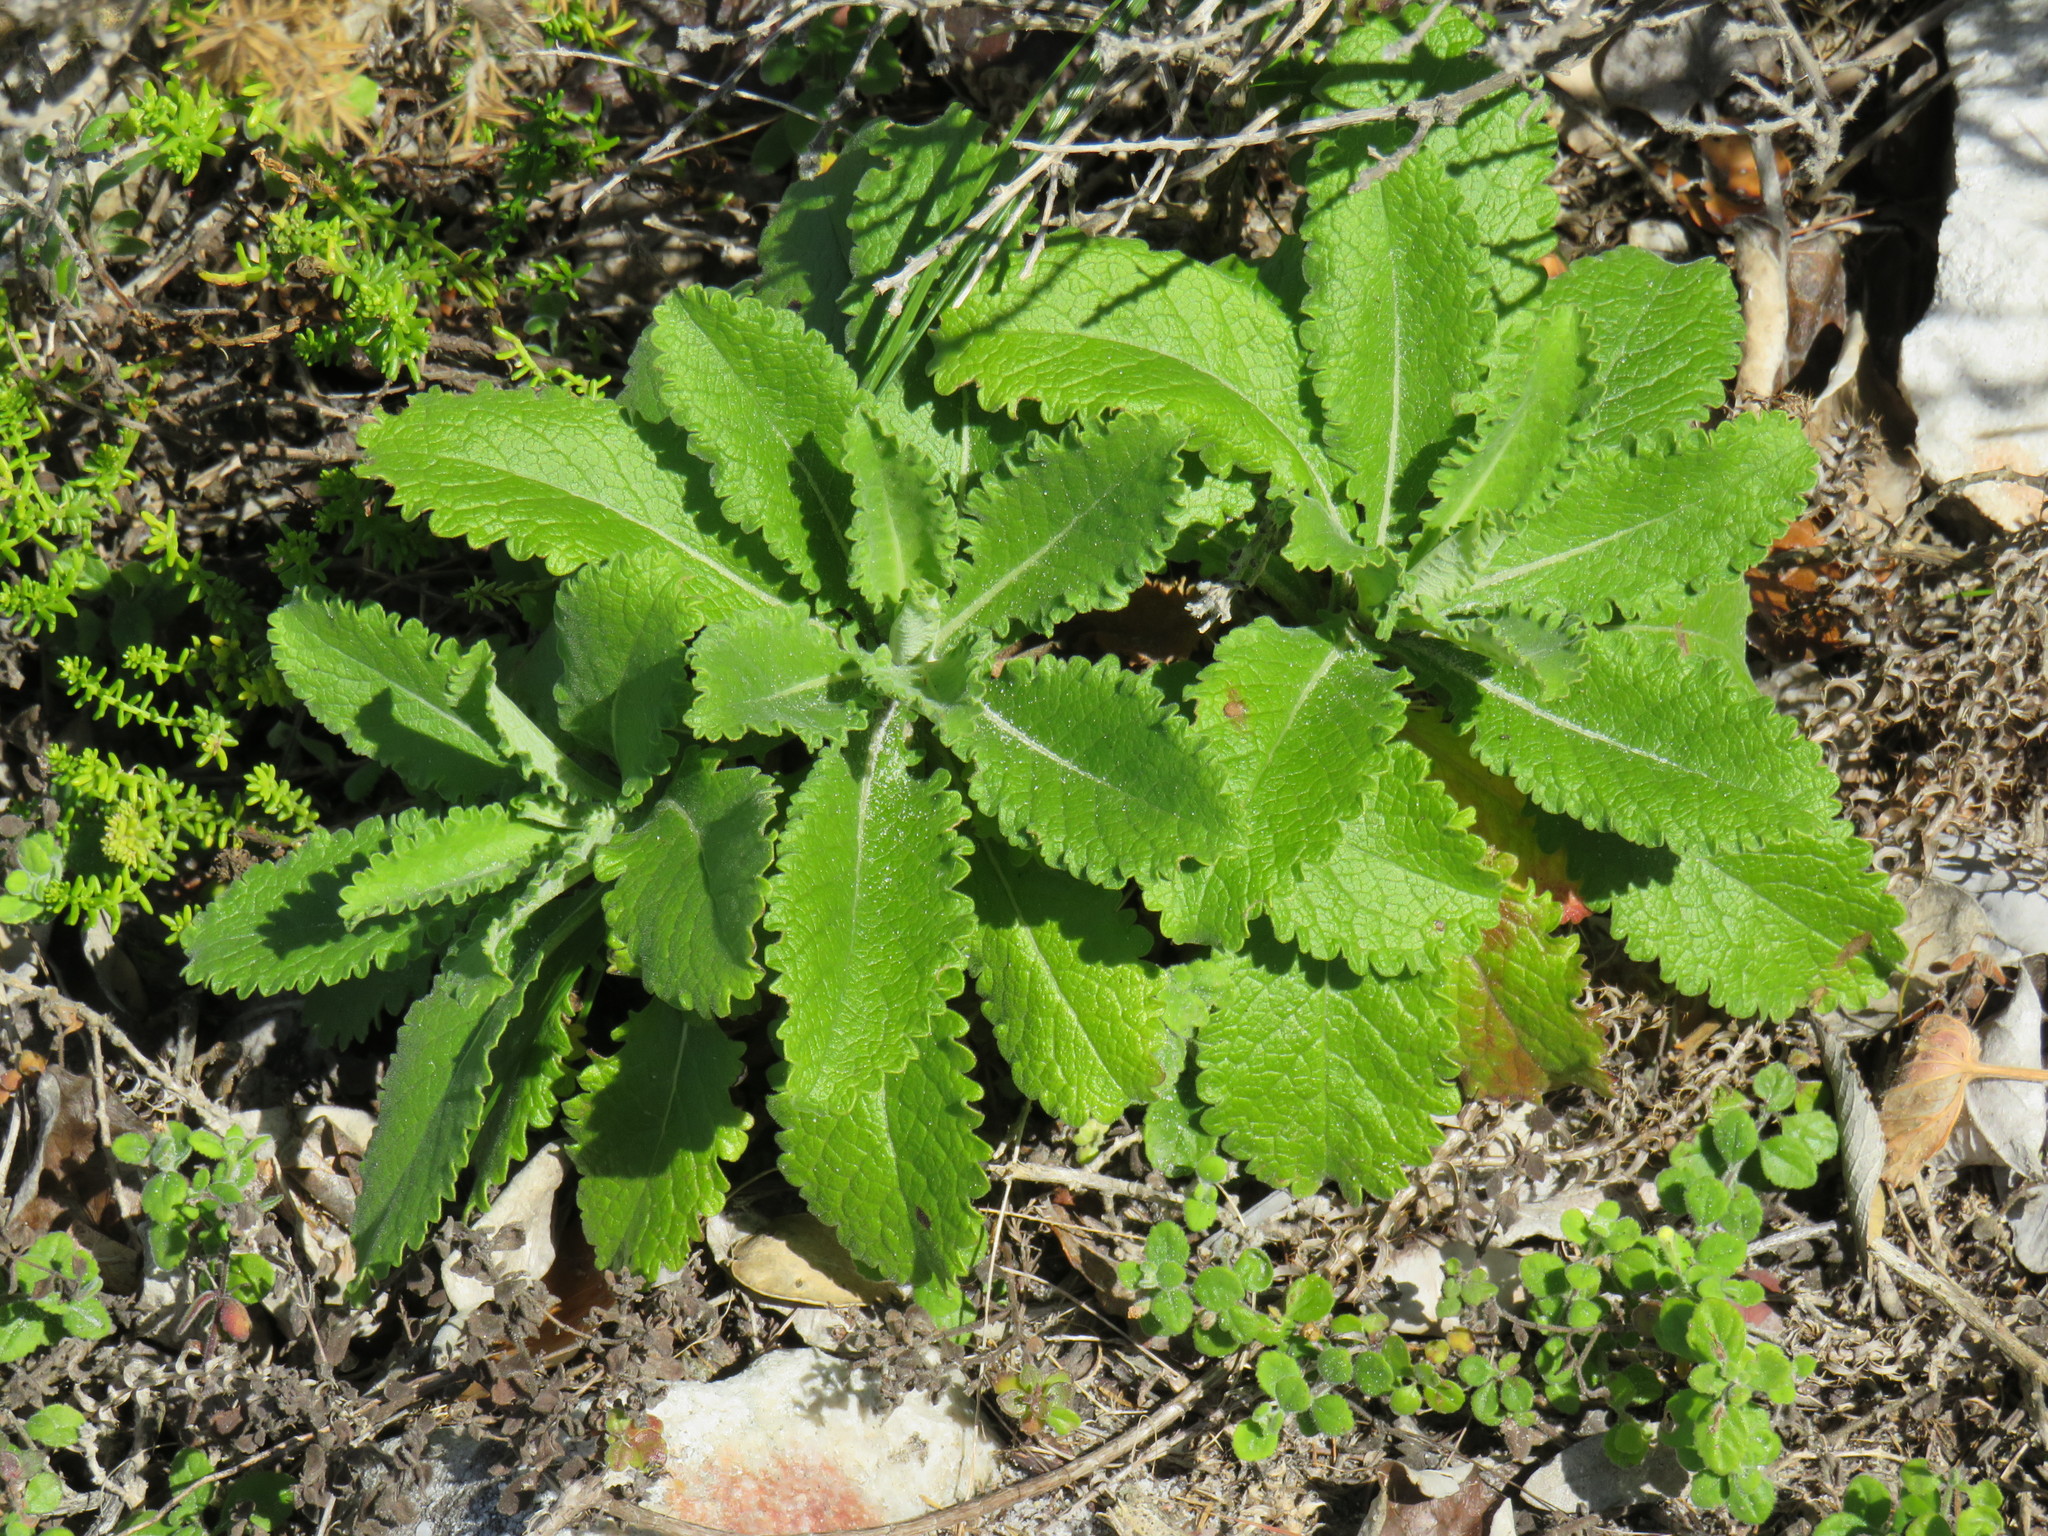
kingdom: Plantae
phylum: Tracheophyta
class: Magnoliopsida
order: Dipsacales
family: Caprifoliaceae
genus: Scabiosa
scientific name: Scabiosa africana
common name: Cape scabious
